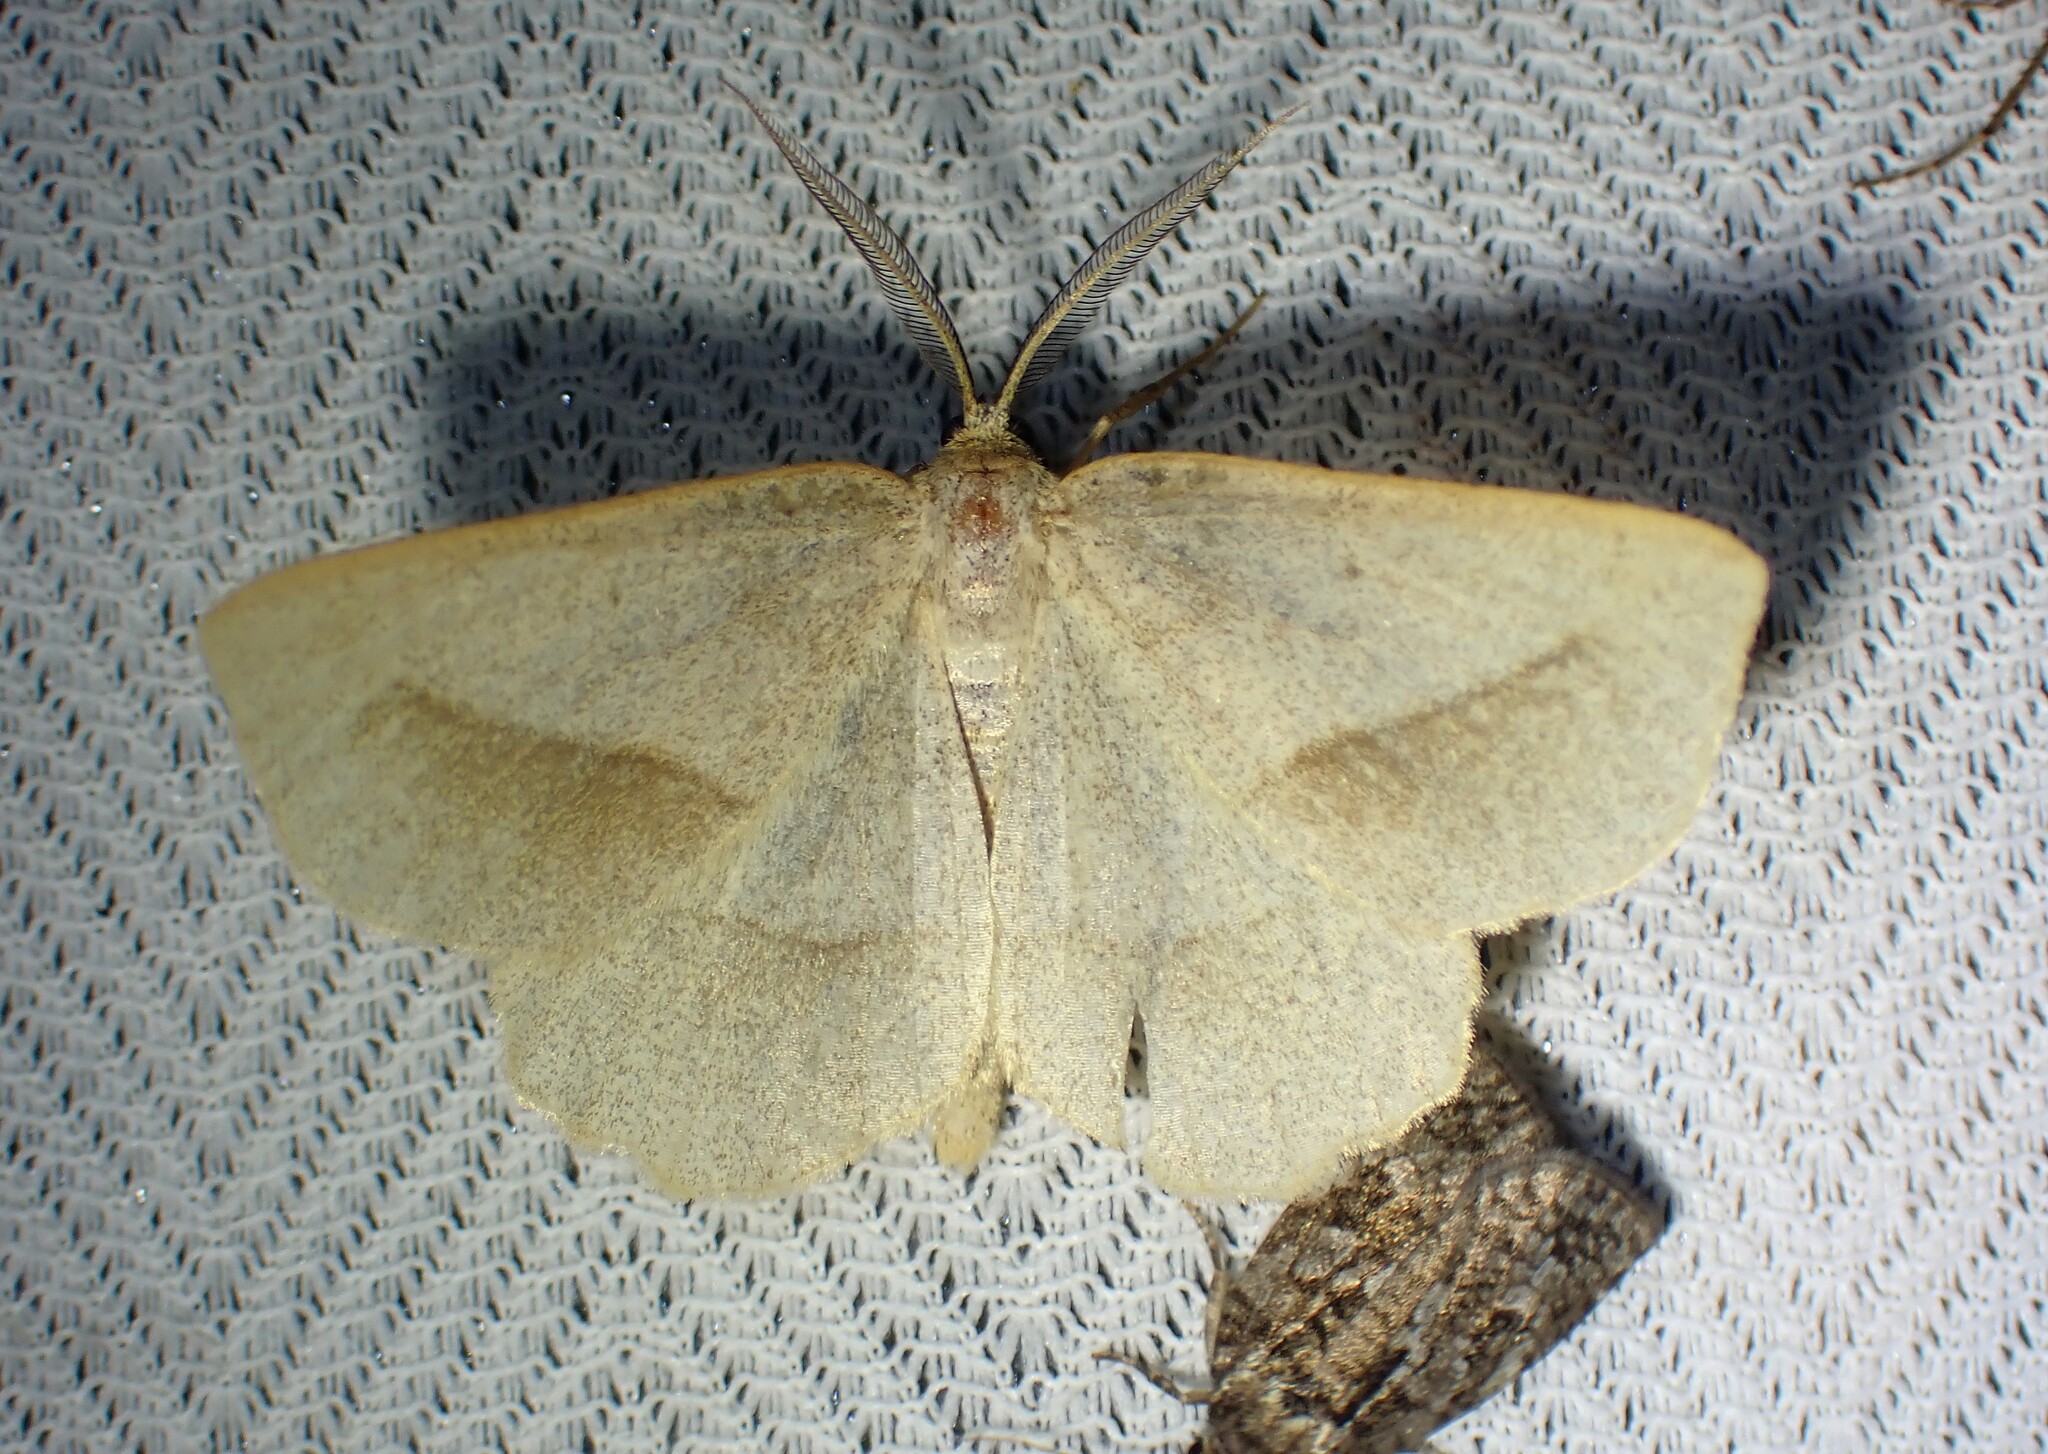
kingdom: Animalia
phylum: Arthropoda
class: Insecta
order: Lepidoptera
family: Geometridae
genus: Euchlaena
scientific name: Euchlaena irraria
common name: Least-marked euchlaena
